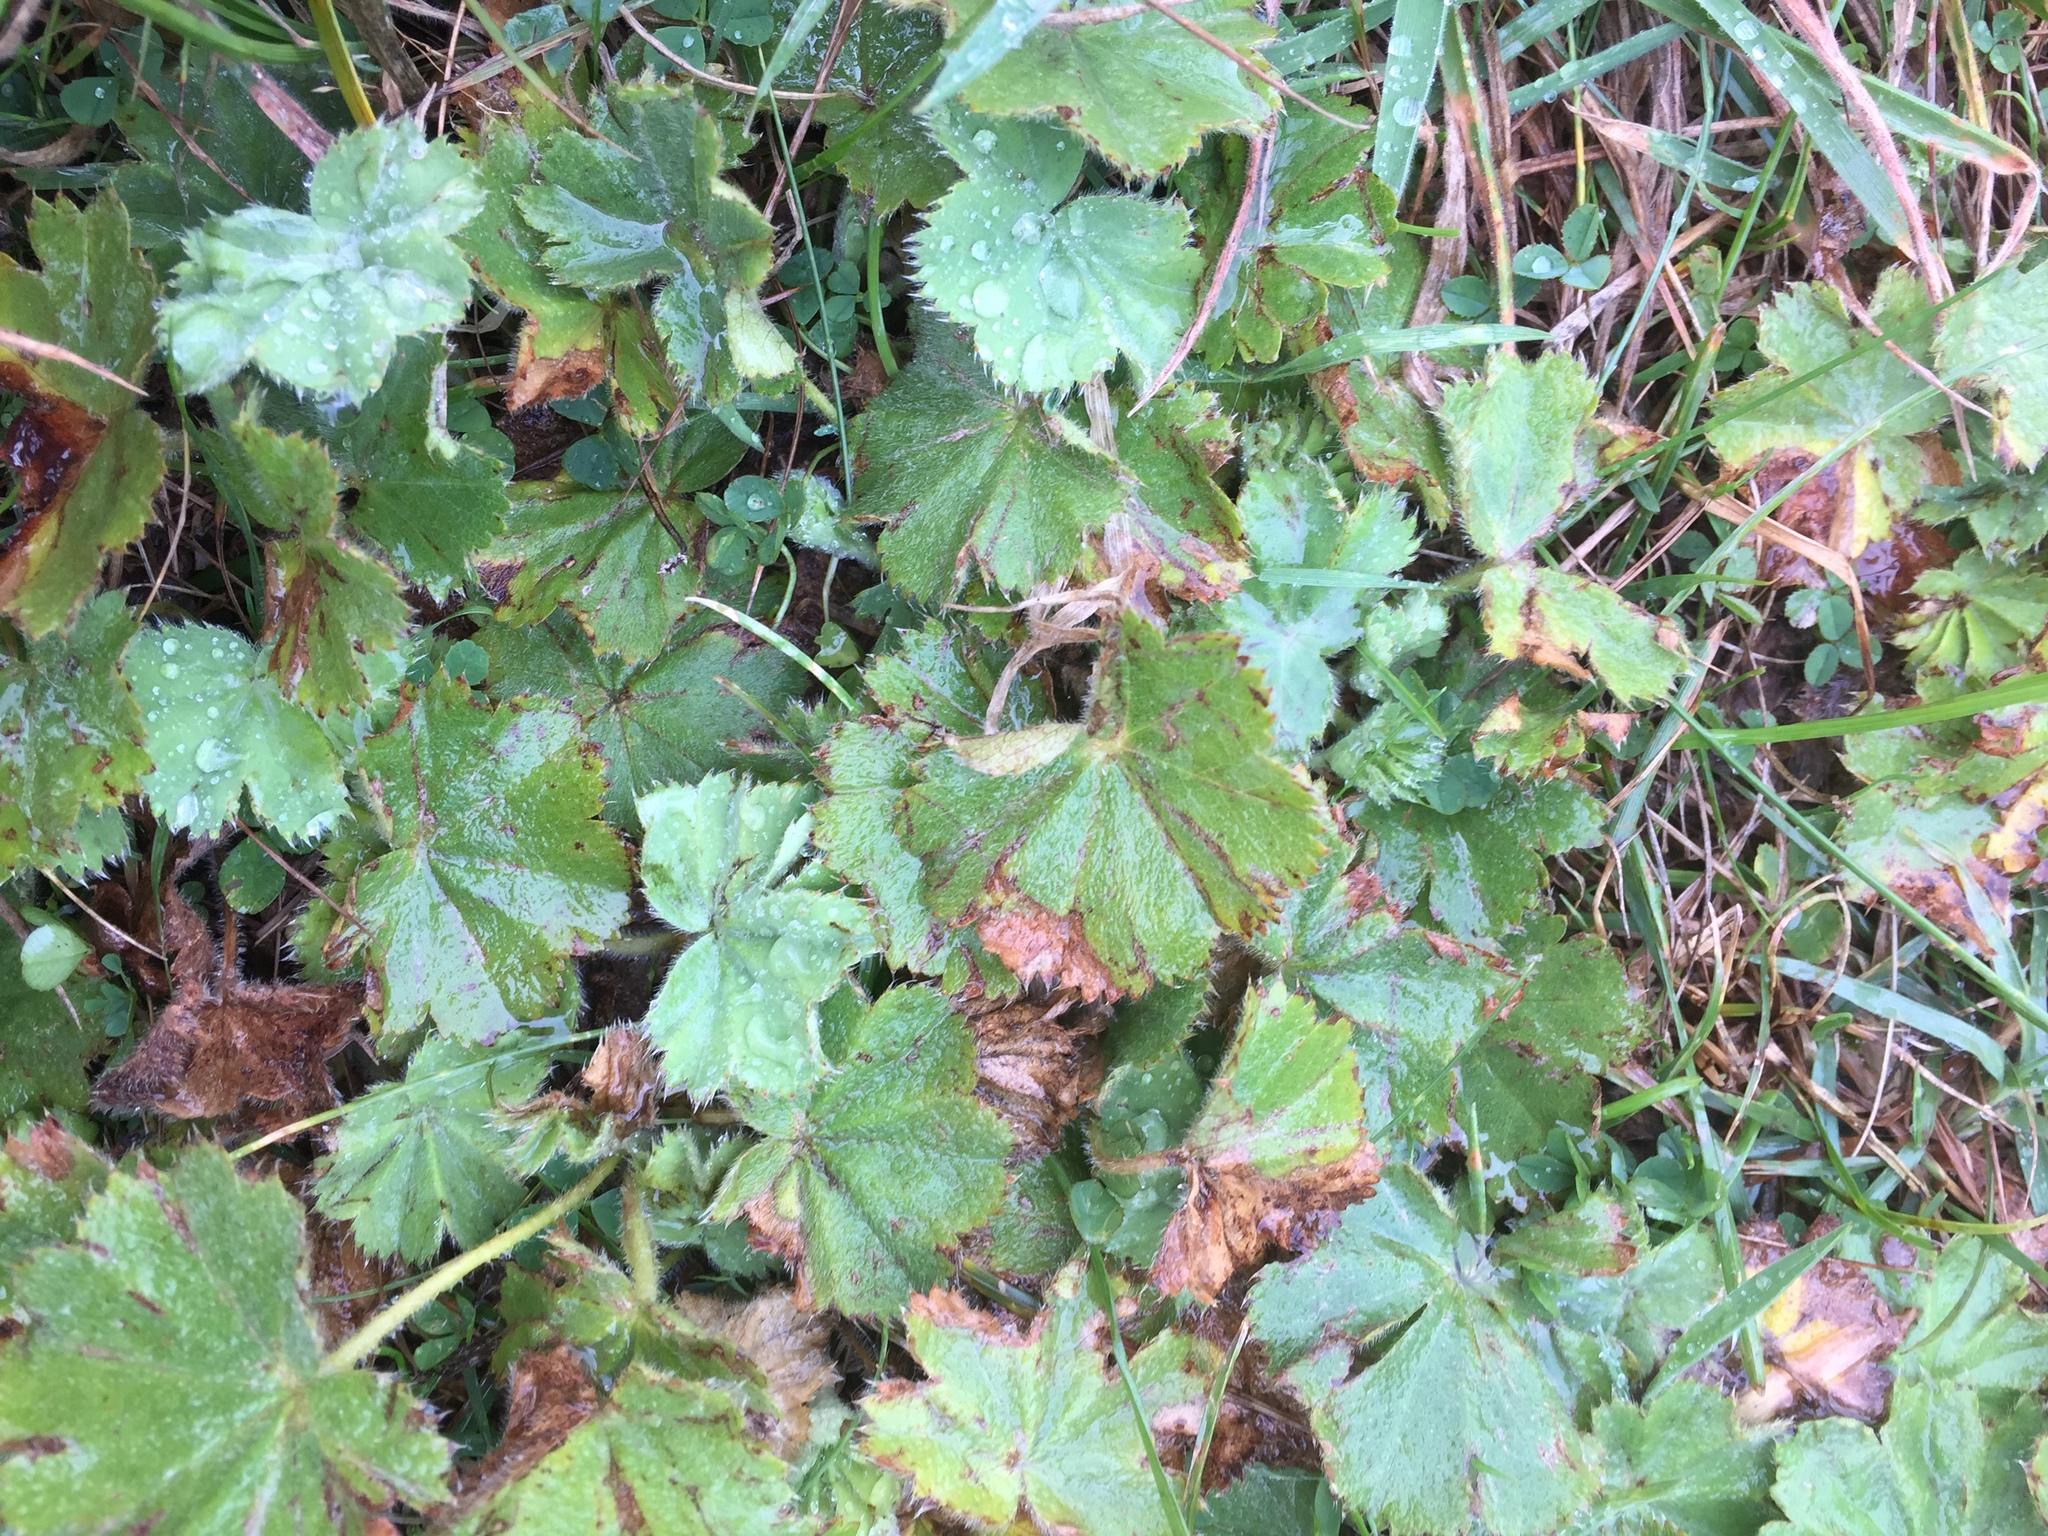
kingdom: Plantae
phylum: Tracheophyta
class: Magnoliopsida
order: Rosales
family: Rosaceae
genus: Alchemilla
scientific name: Alchemilla mollis
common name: Lady's-mantle
